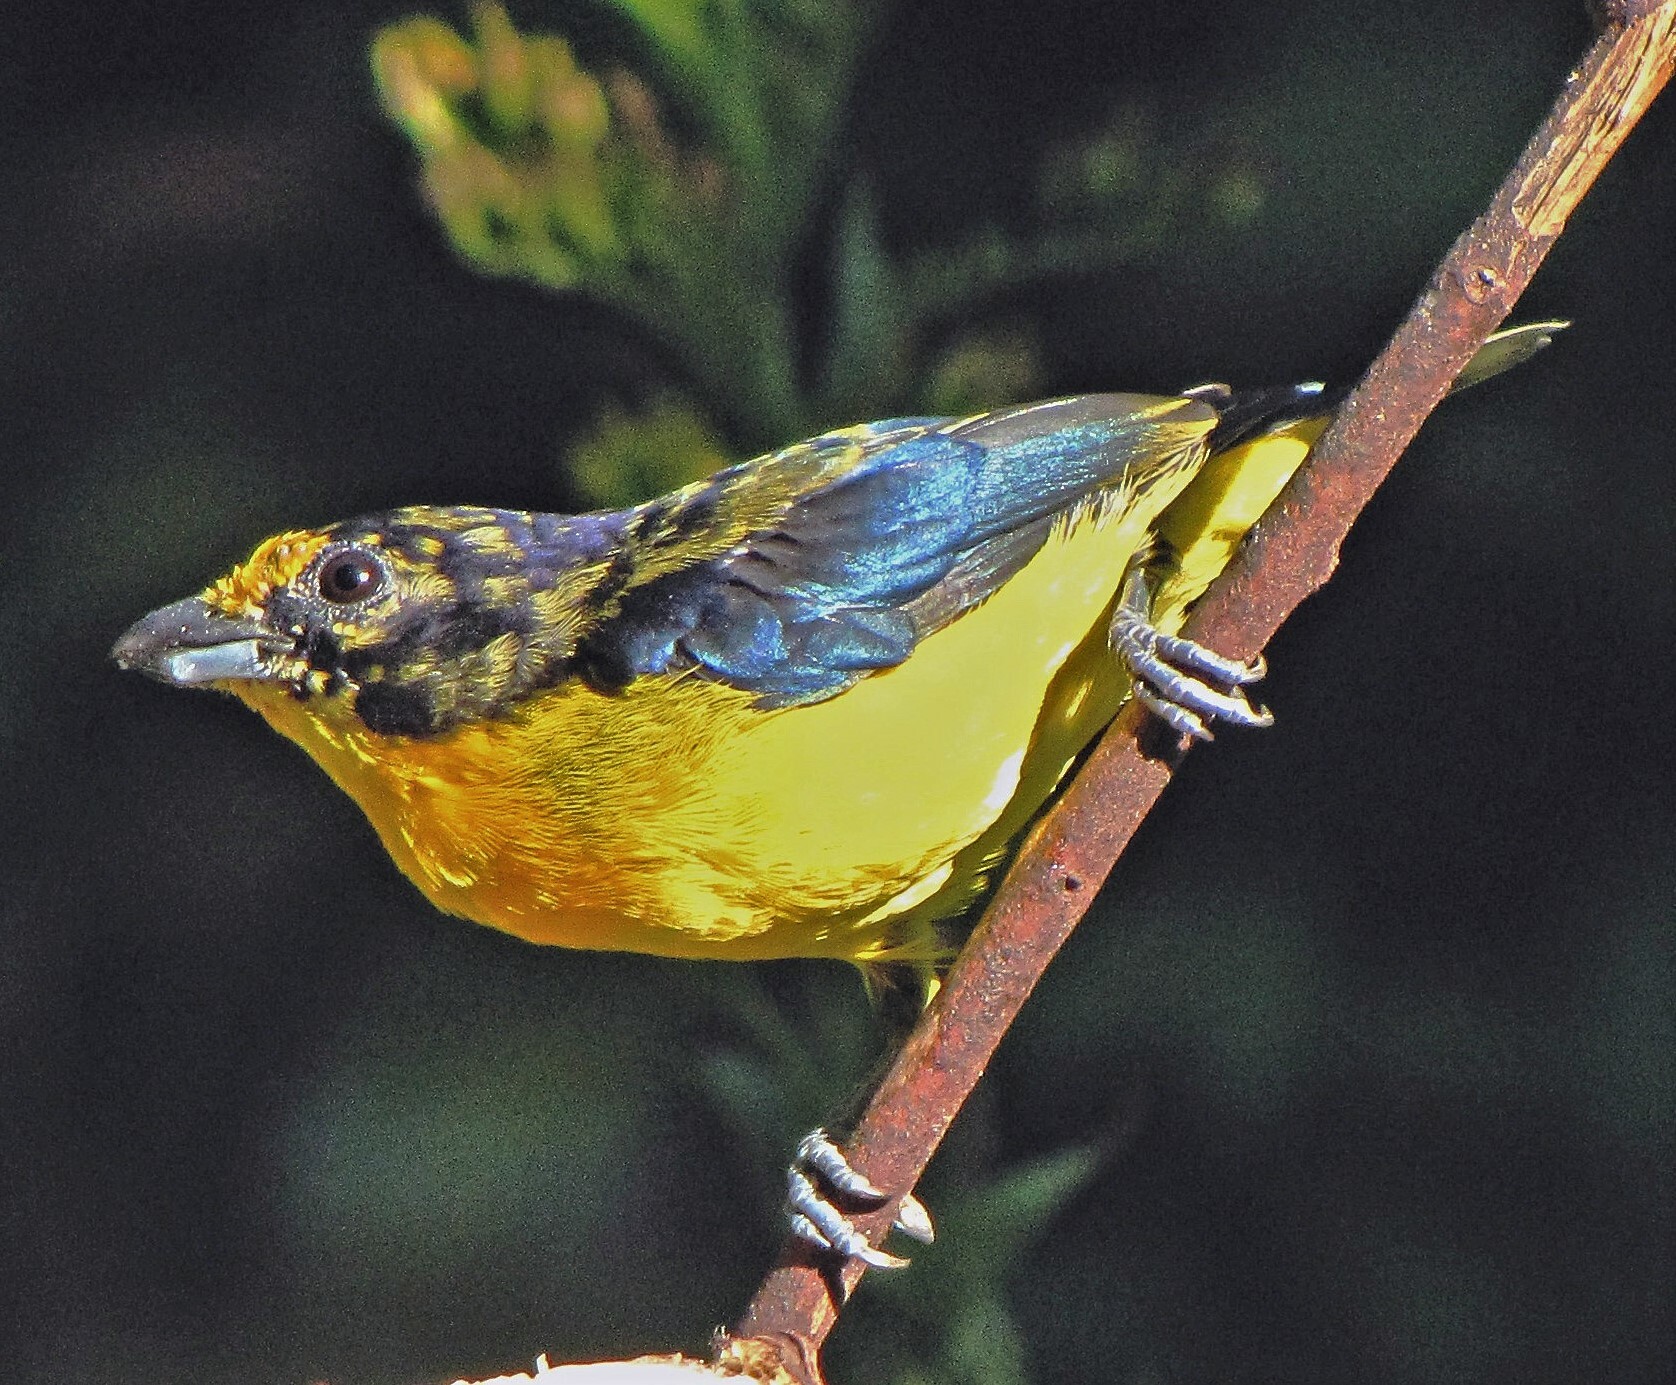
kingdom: Animalia
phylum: Chordata
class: Aves
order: Passeriformes
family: Fringillidae
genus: Euphonia
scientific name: Euphonia violacea
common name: Violaceous euphonia
